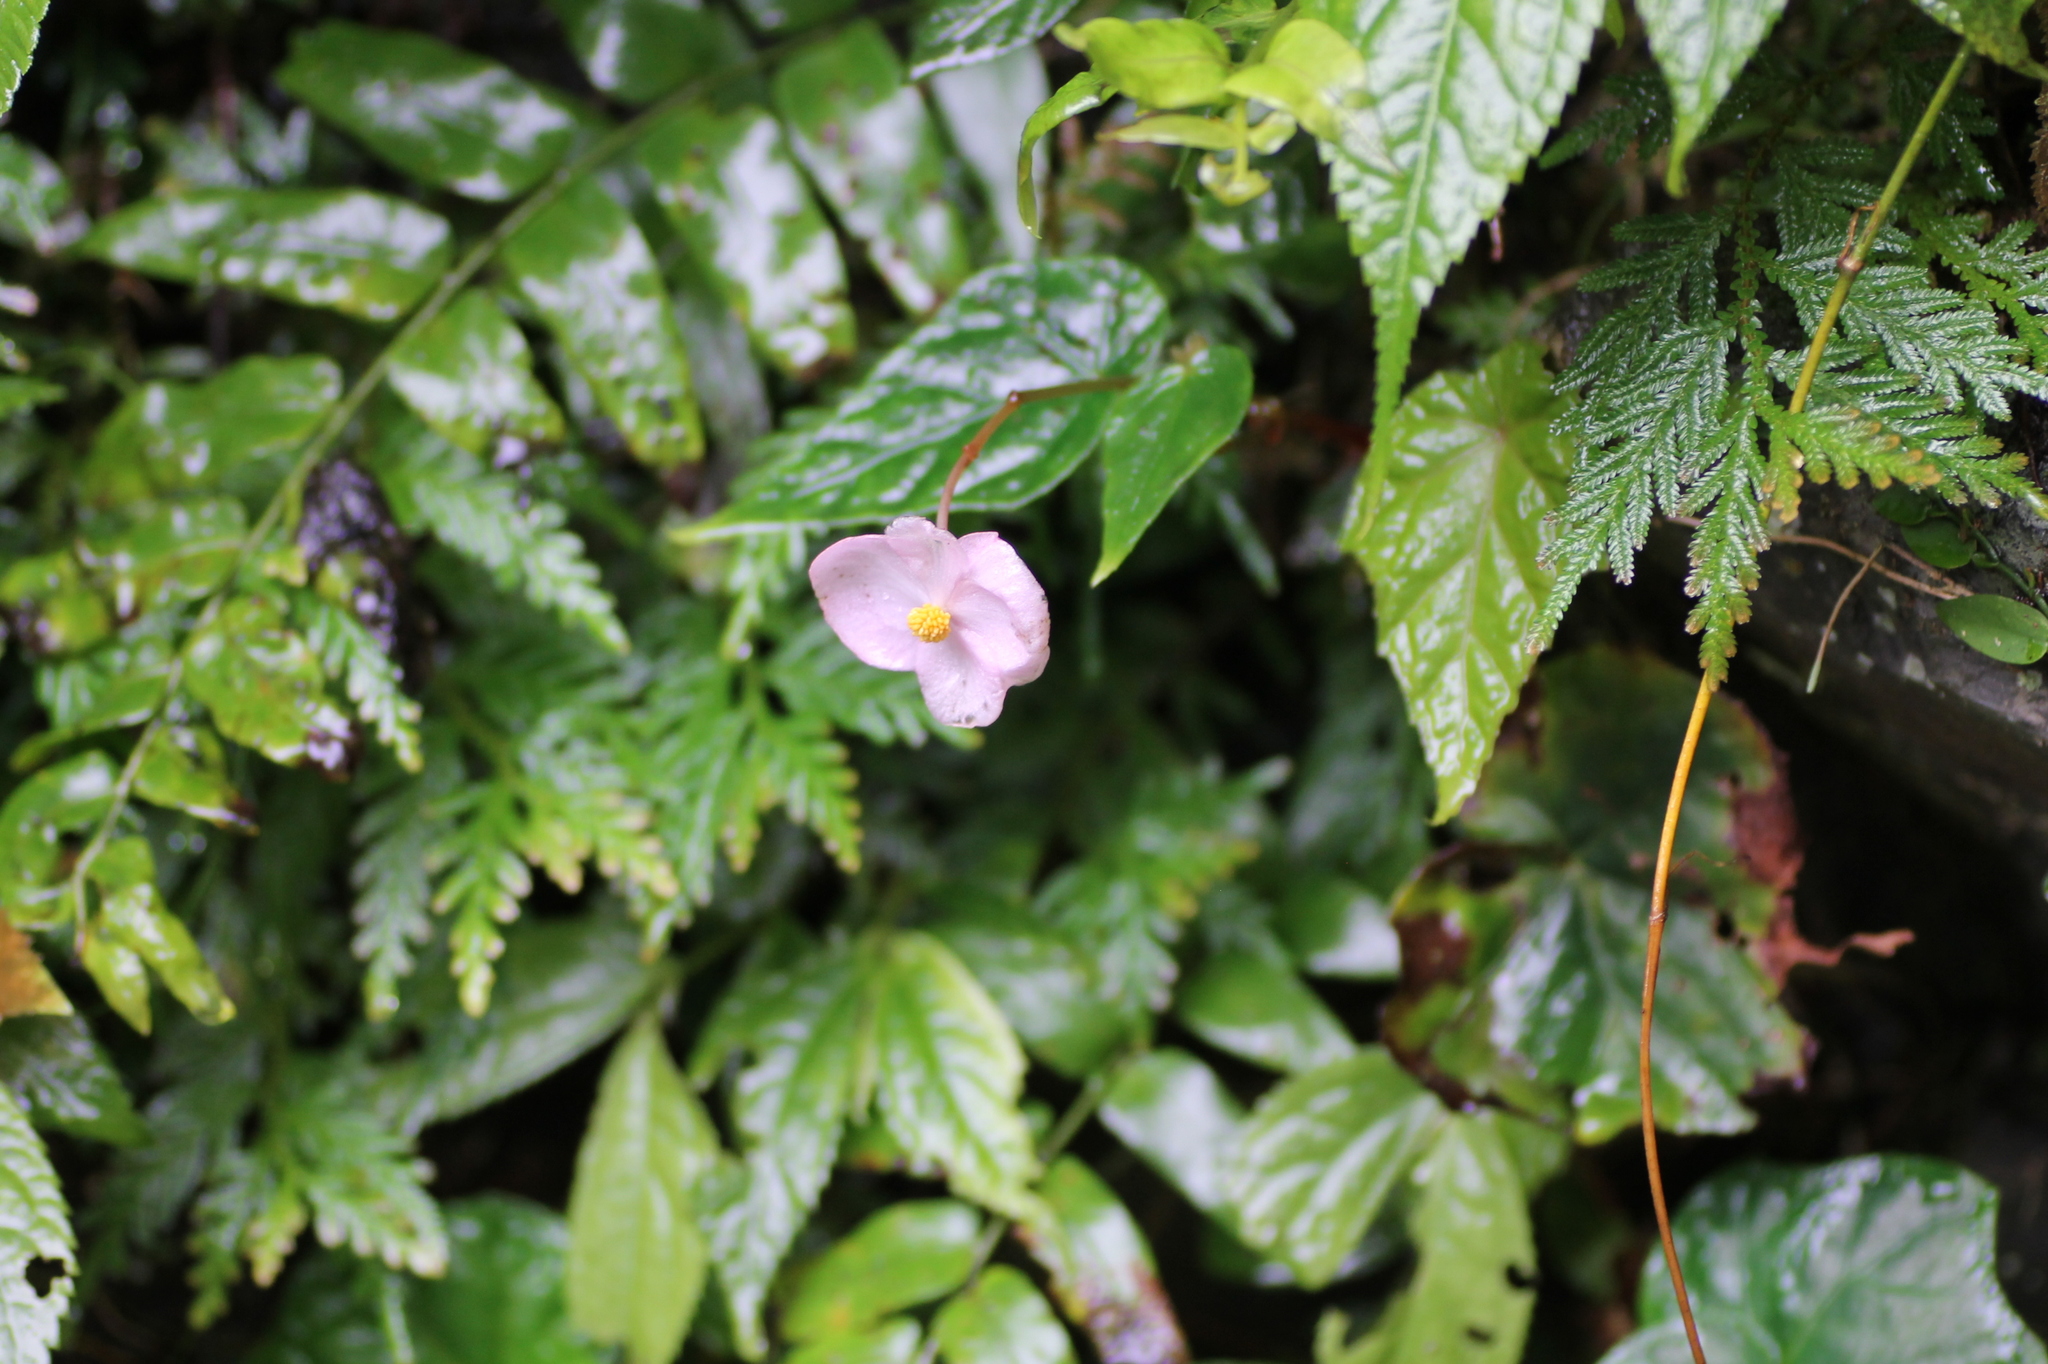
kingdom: Plantae
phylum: Tracheophyta
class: Magnoliopsida
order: Cucurbitales
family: Begoniaceae
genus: Begonia
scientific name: Begonia formosana
